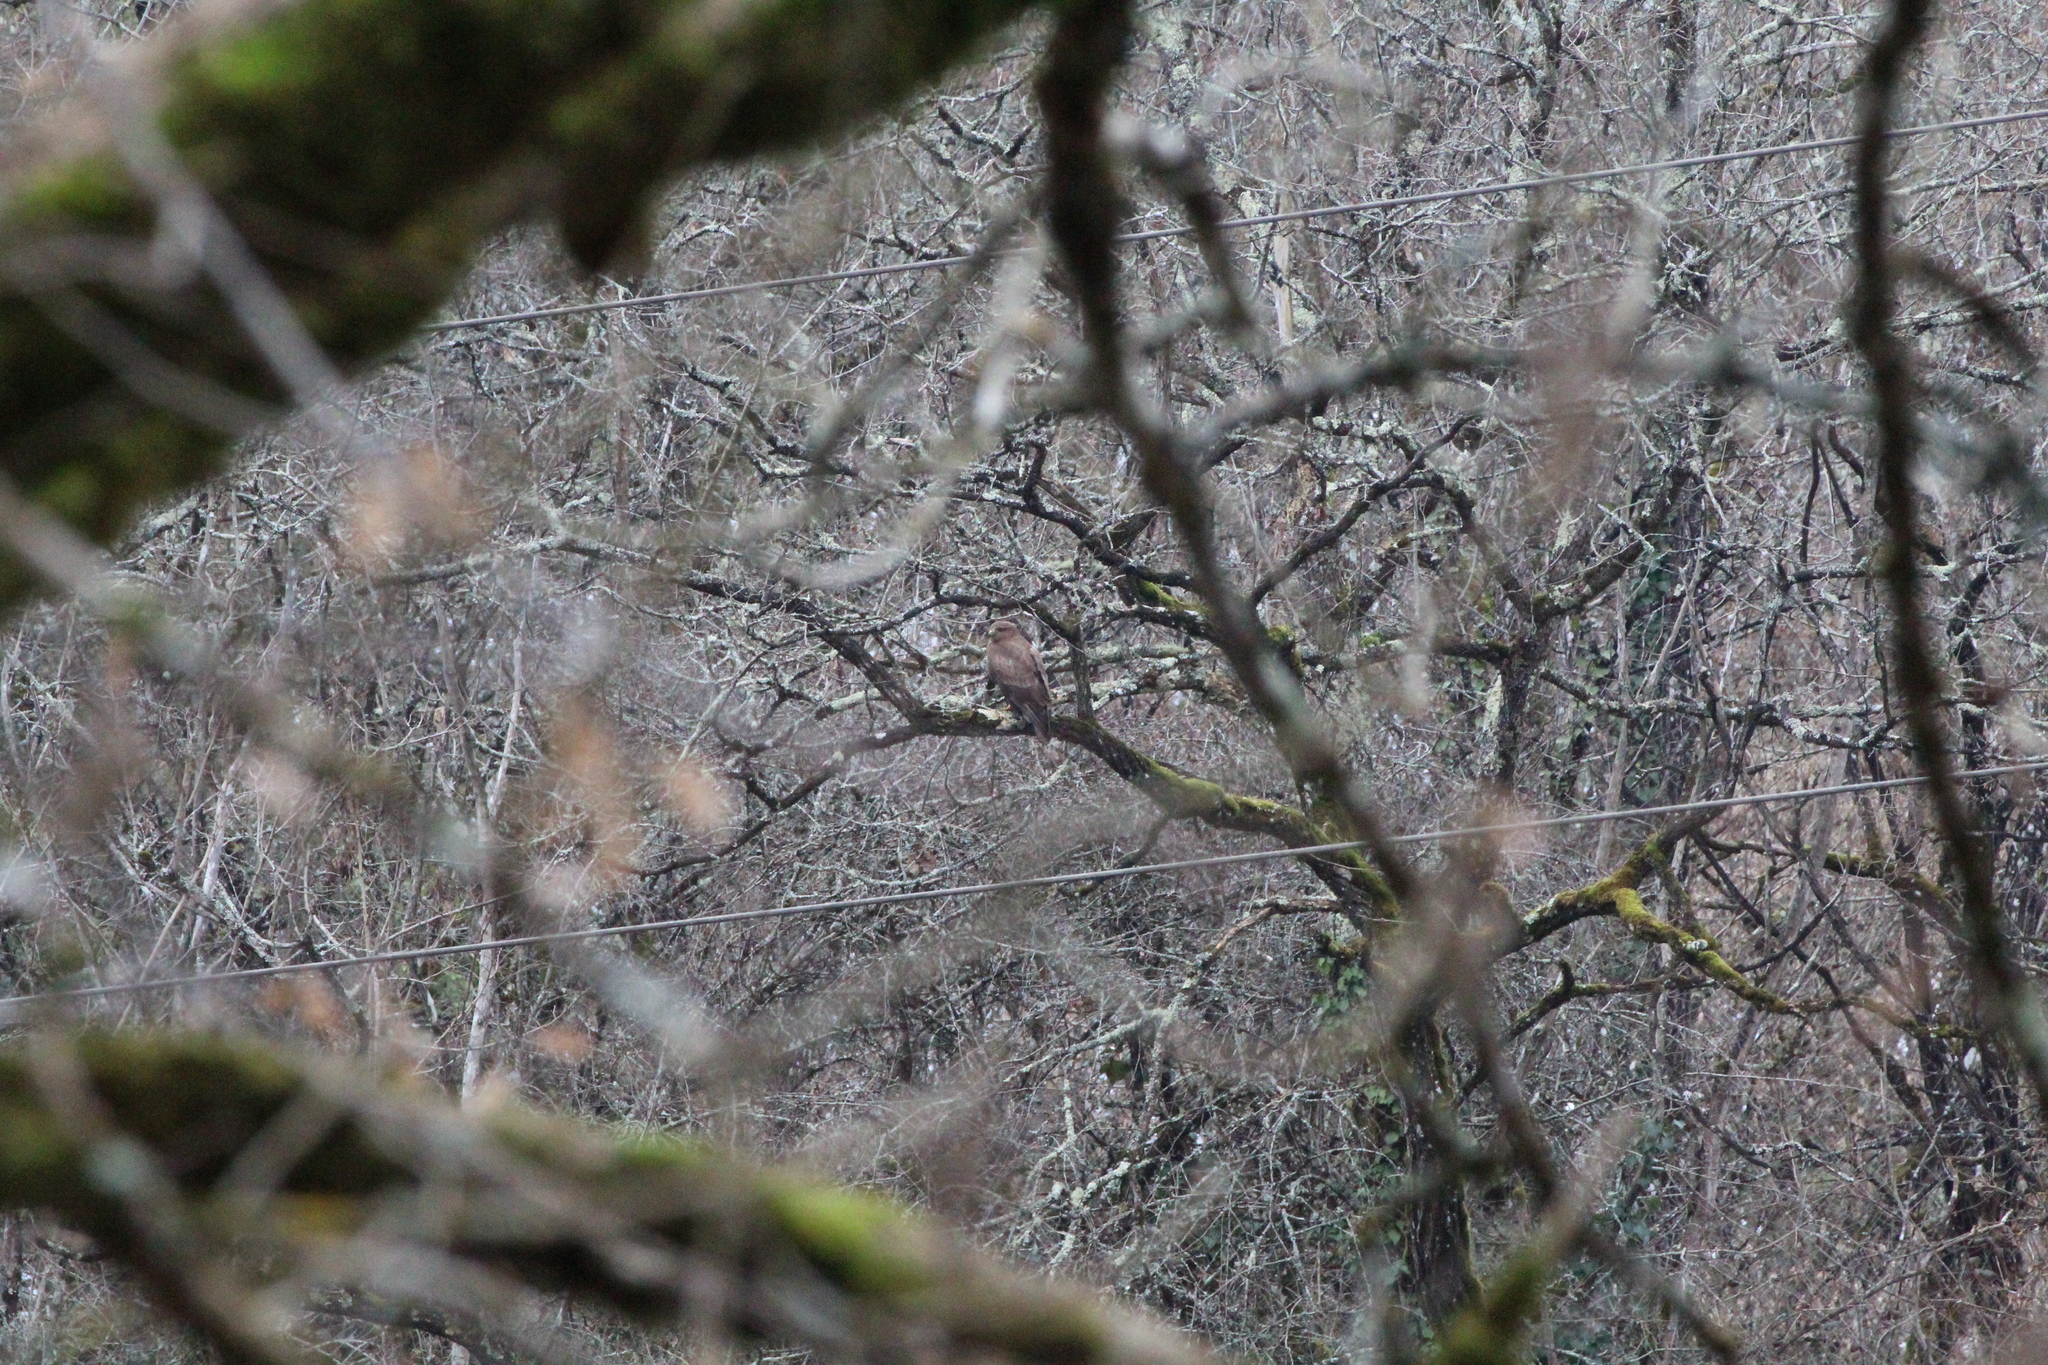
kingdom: Animalia
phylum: Chordata
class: Aves
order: Accipitriformes
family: Accipitridae
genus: Buteo
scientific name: Buteo buteo
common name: Common buzzard
